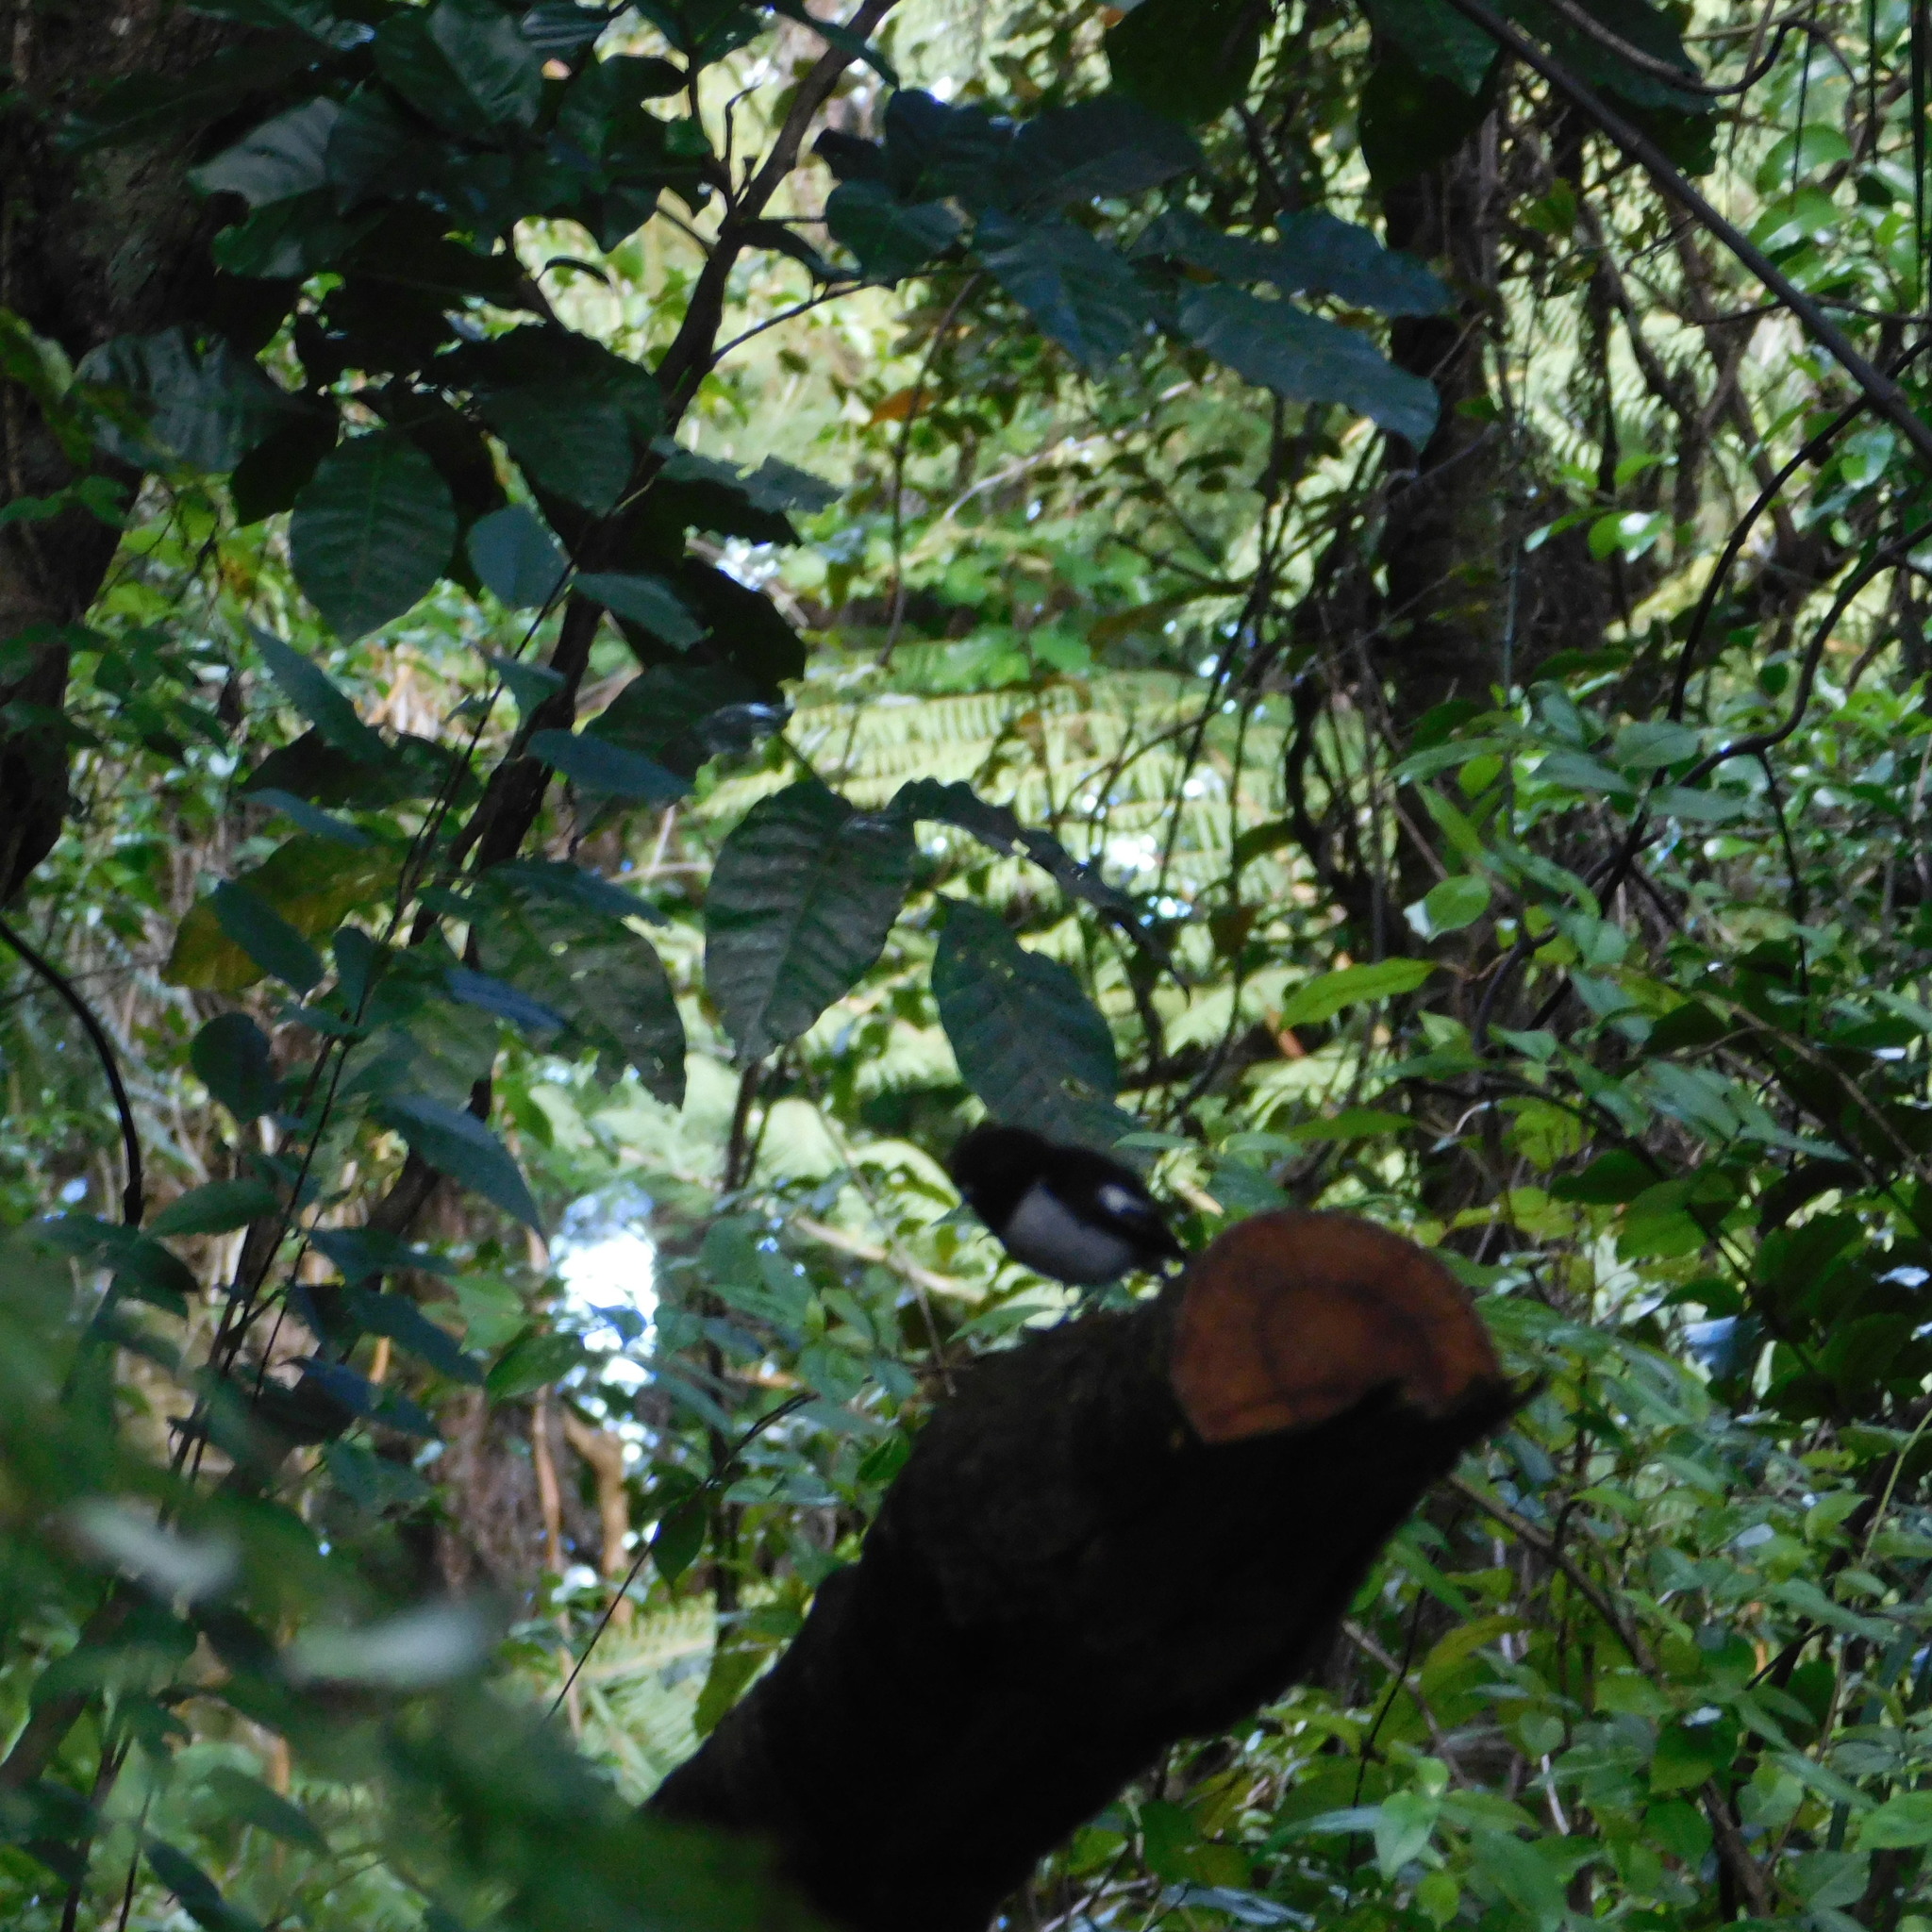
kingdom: Animalia
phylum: Chordata
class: Aves
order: Passeriformes
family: Petroicidae
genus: Petroica
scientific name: Petroica macrocephala
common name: Tomtit
